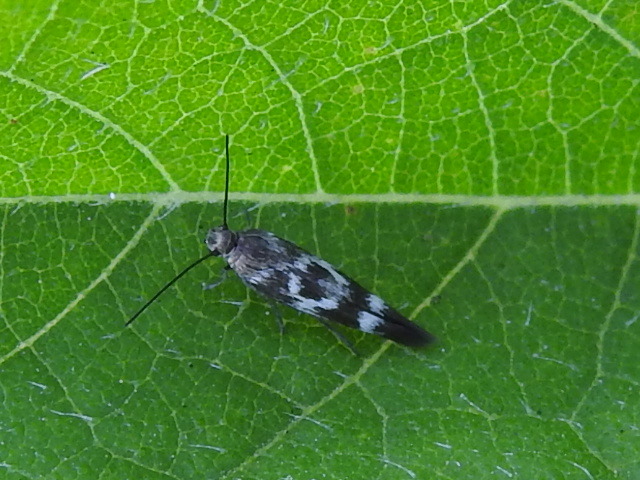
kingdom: Animalia
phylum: Arthropoda
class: Insecta
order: Lepidoptera
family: Scythrididae
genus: Scythris
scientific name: Scythris trivinctella
